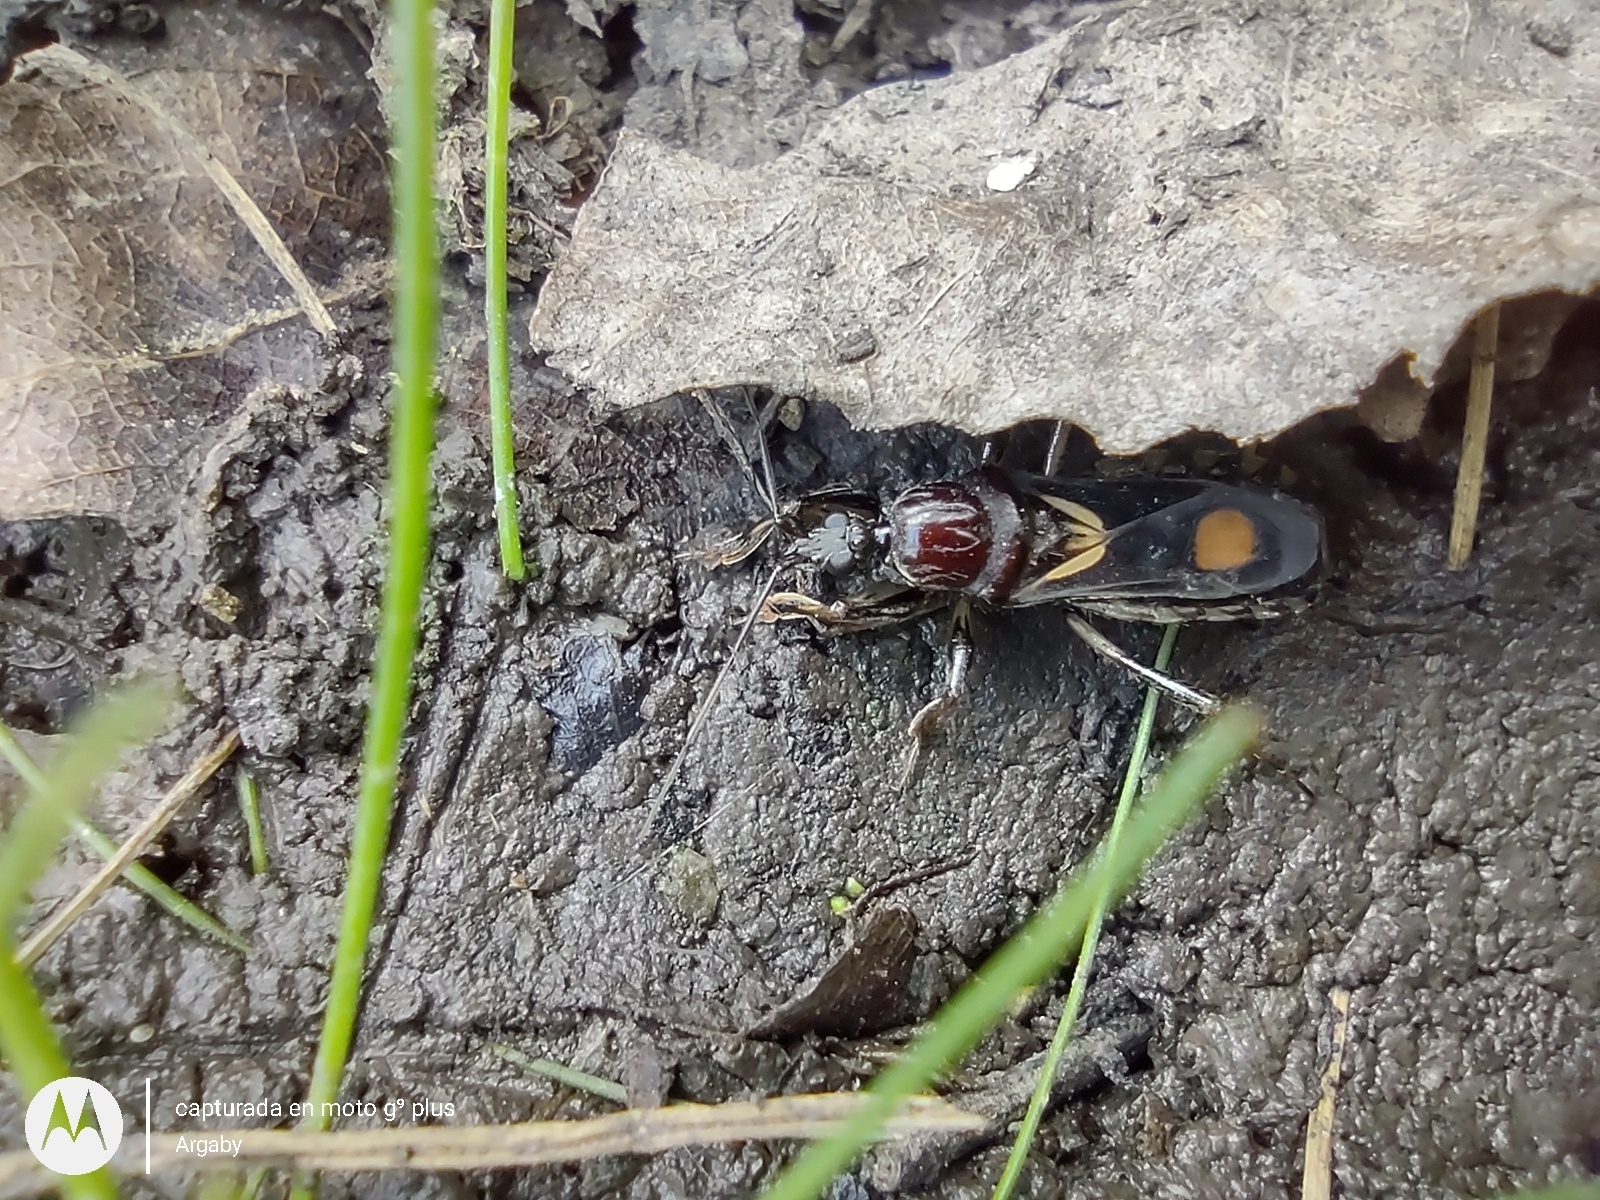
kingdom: Animalia
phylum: Arthropoda
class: Insecta
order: Hemiptera
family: Reduviidae
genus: Rasahus
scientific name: Rasahus hamatus
